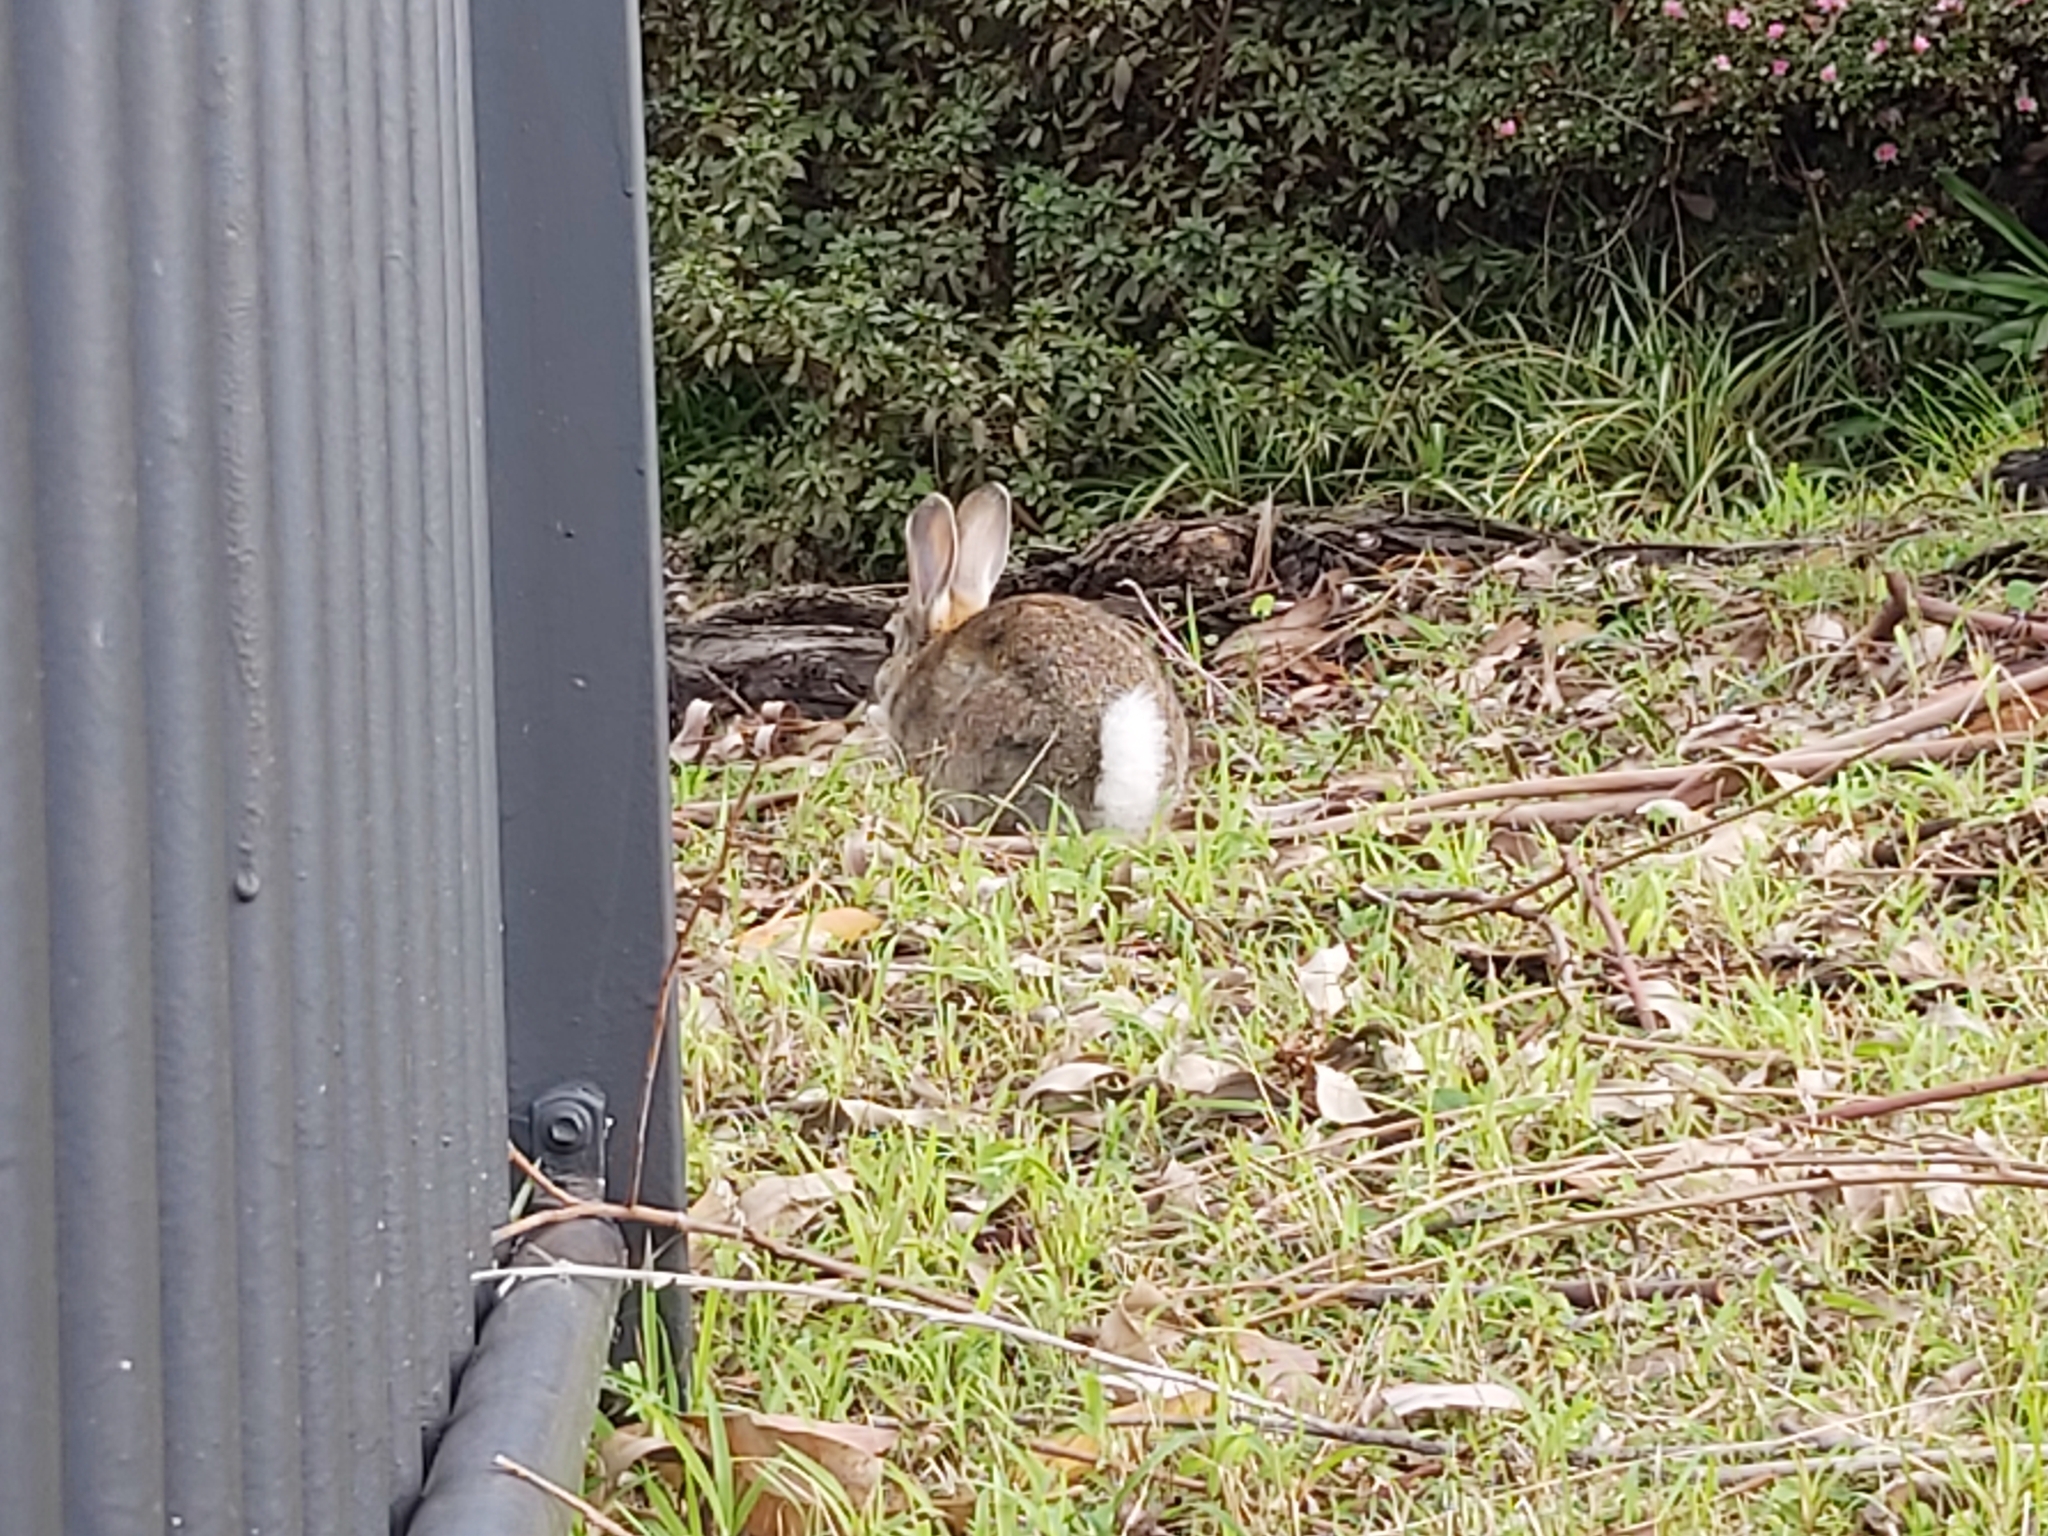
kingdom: Animalia
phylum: Chordata
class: Mammalia
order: Lagomorpha
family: Leporidae
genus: Oryctolagus
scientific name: Oryctolagus cuniculus
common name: European rabbit
